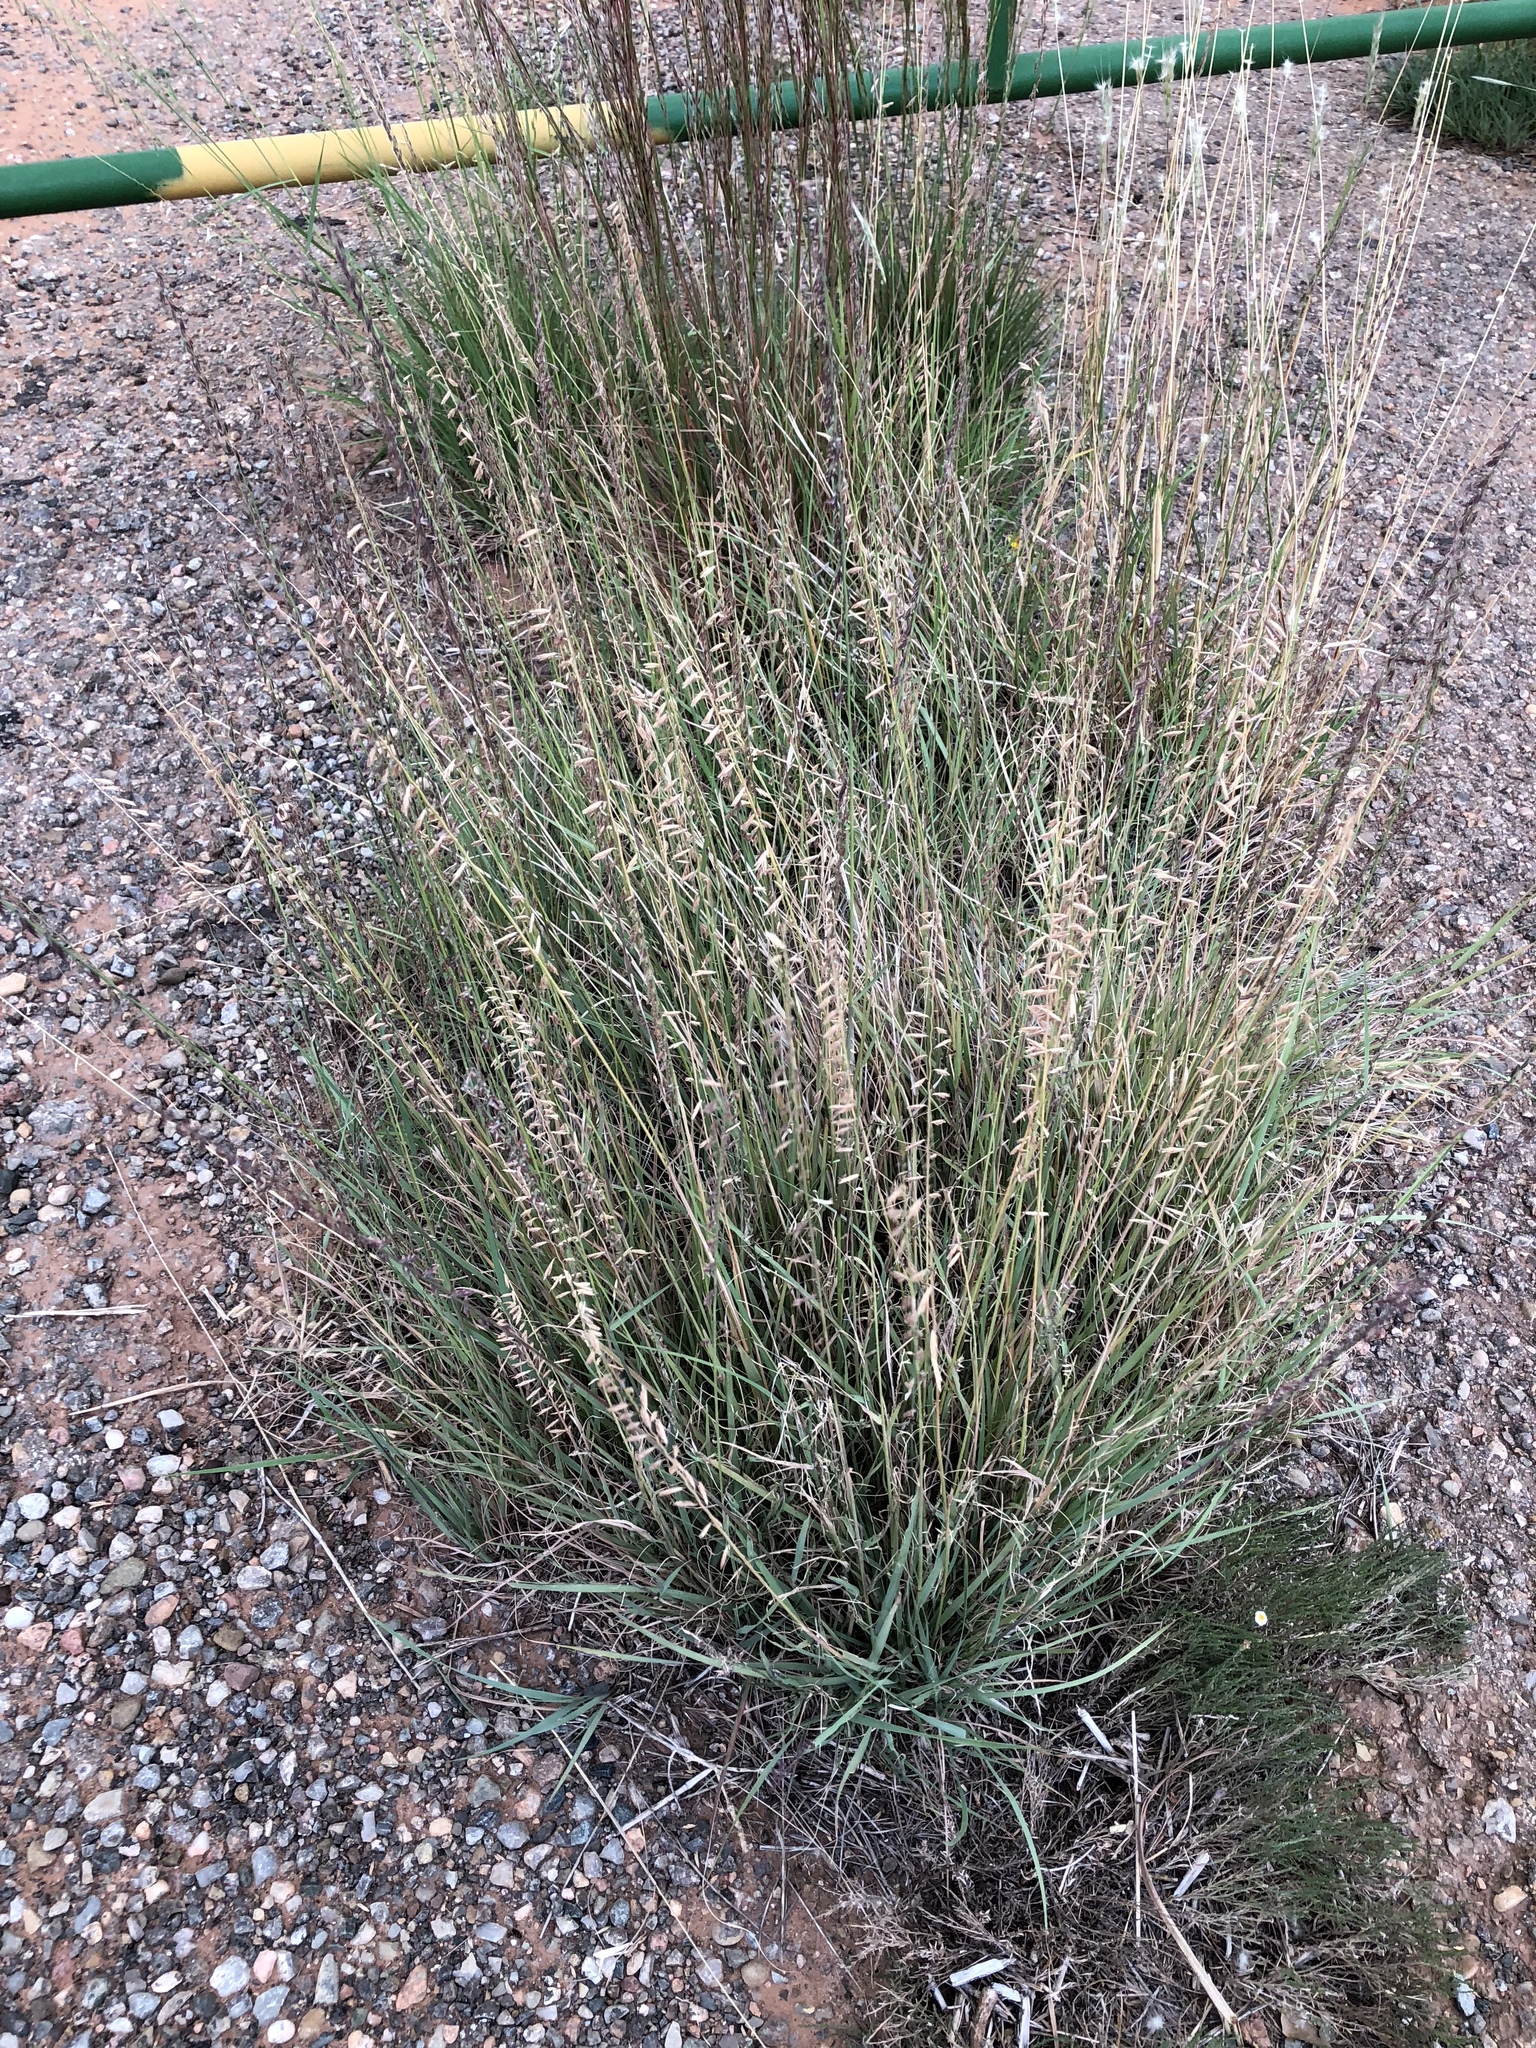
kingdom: Plantae
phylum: Tracheophyta
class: Liliopsida
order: Poales
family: Poaceae
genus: Bouteloua
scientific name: Bouteloua curtipendula
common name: Side-oats grama
